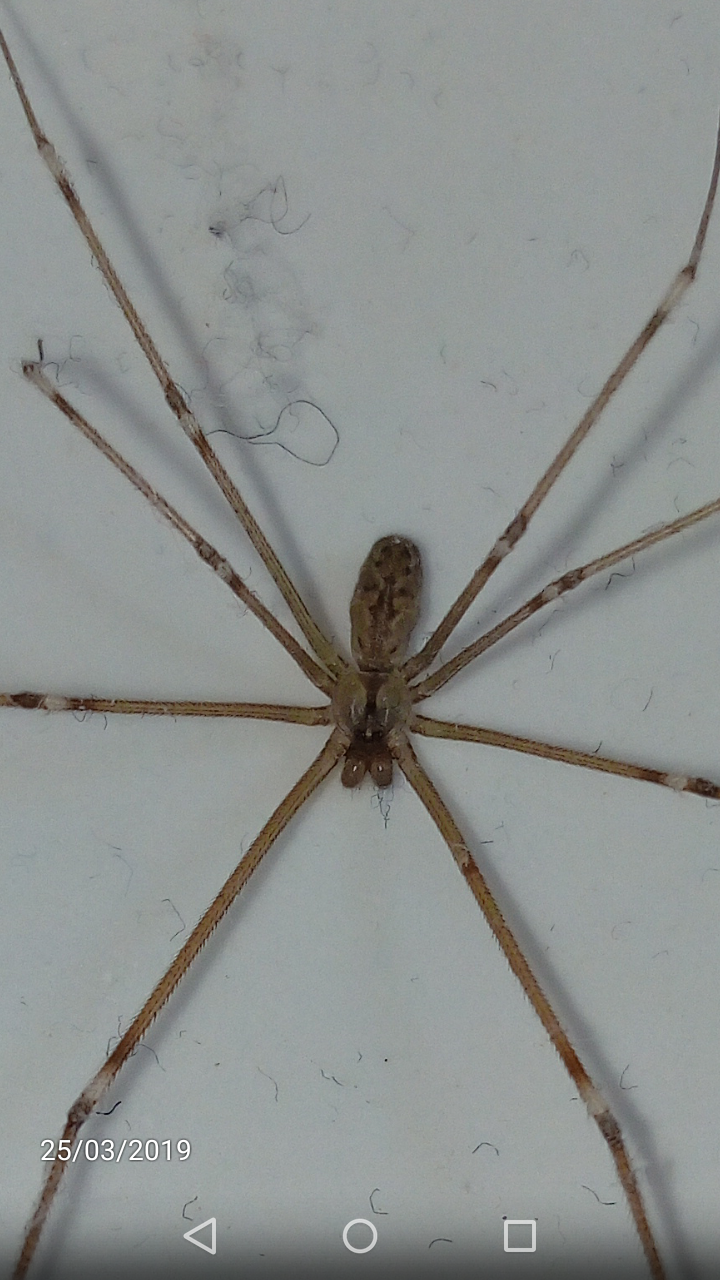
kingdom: Animalia
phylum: Arthropoda
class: Arachnida
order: Araneae
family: Pholcidae
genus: Holocnemus
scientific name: Holocnemus pluchei
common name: Marbled cellar spider
